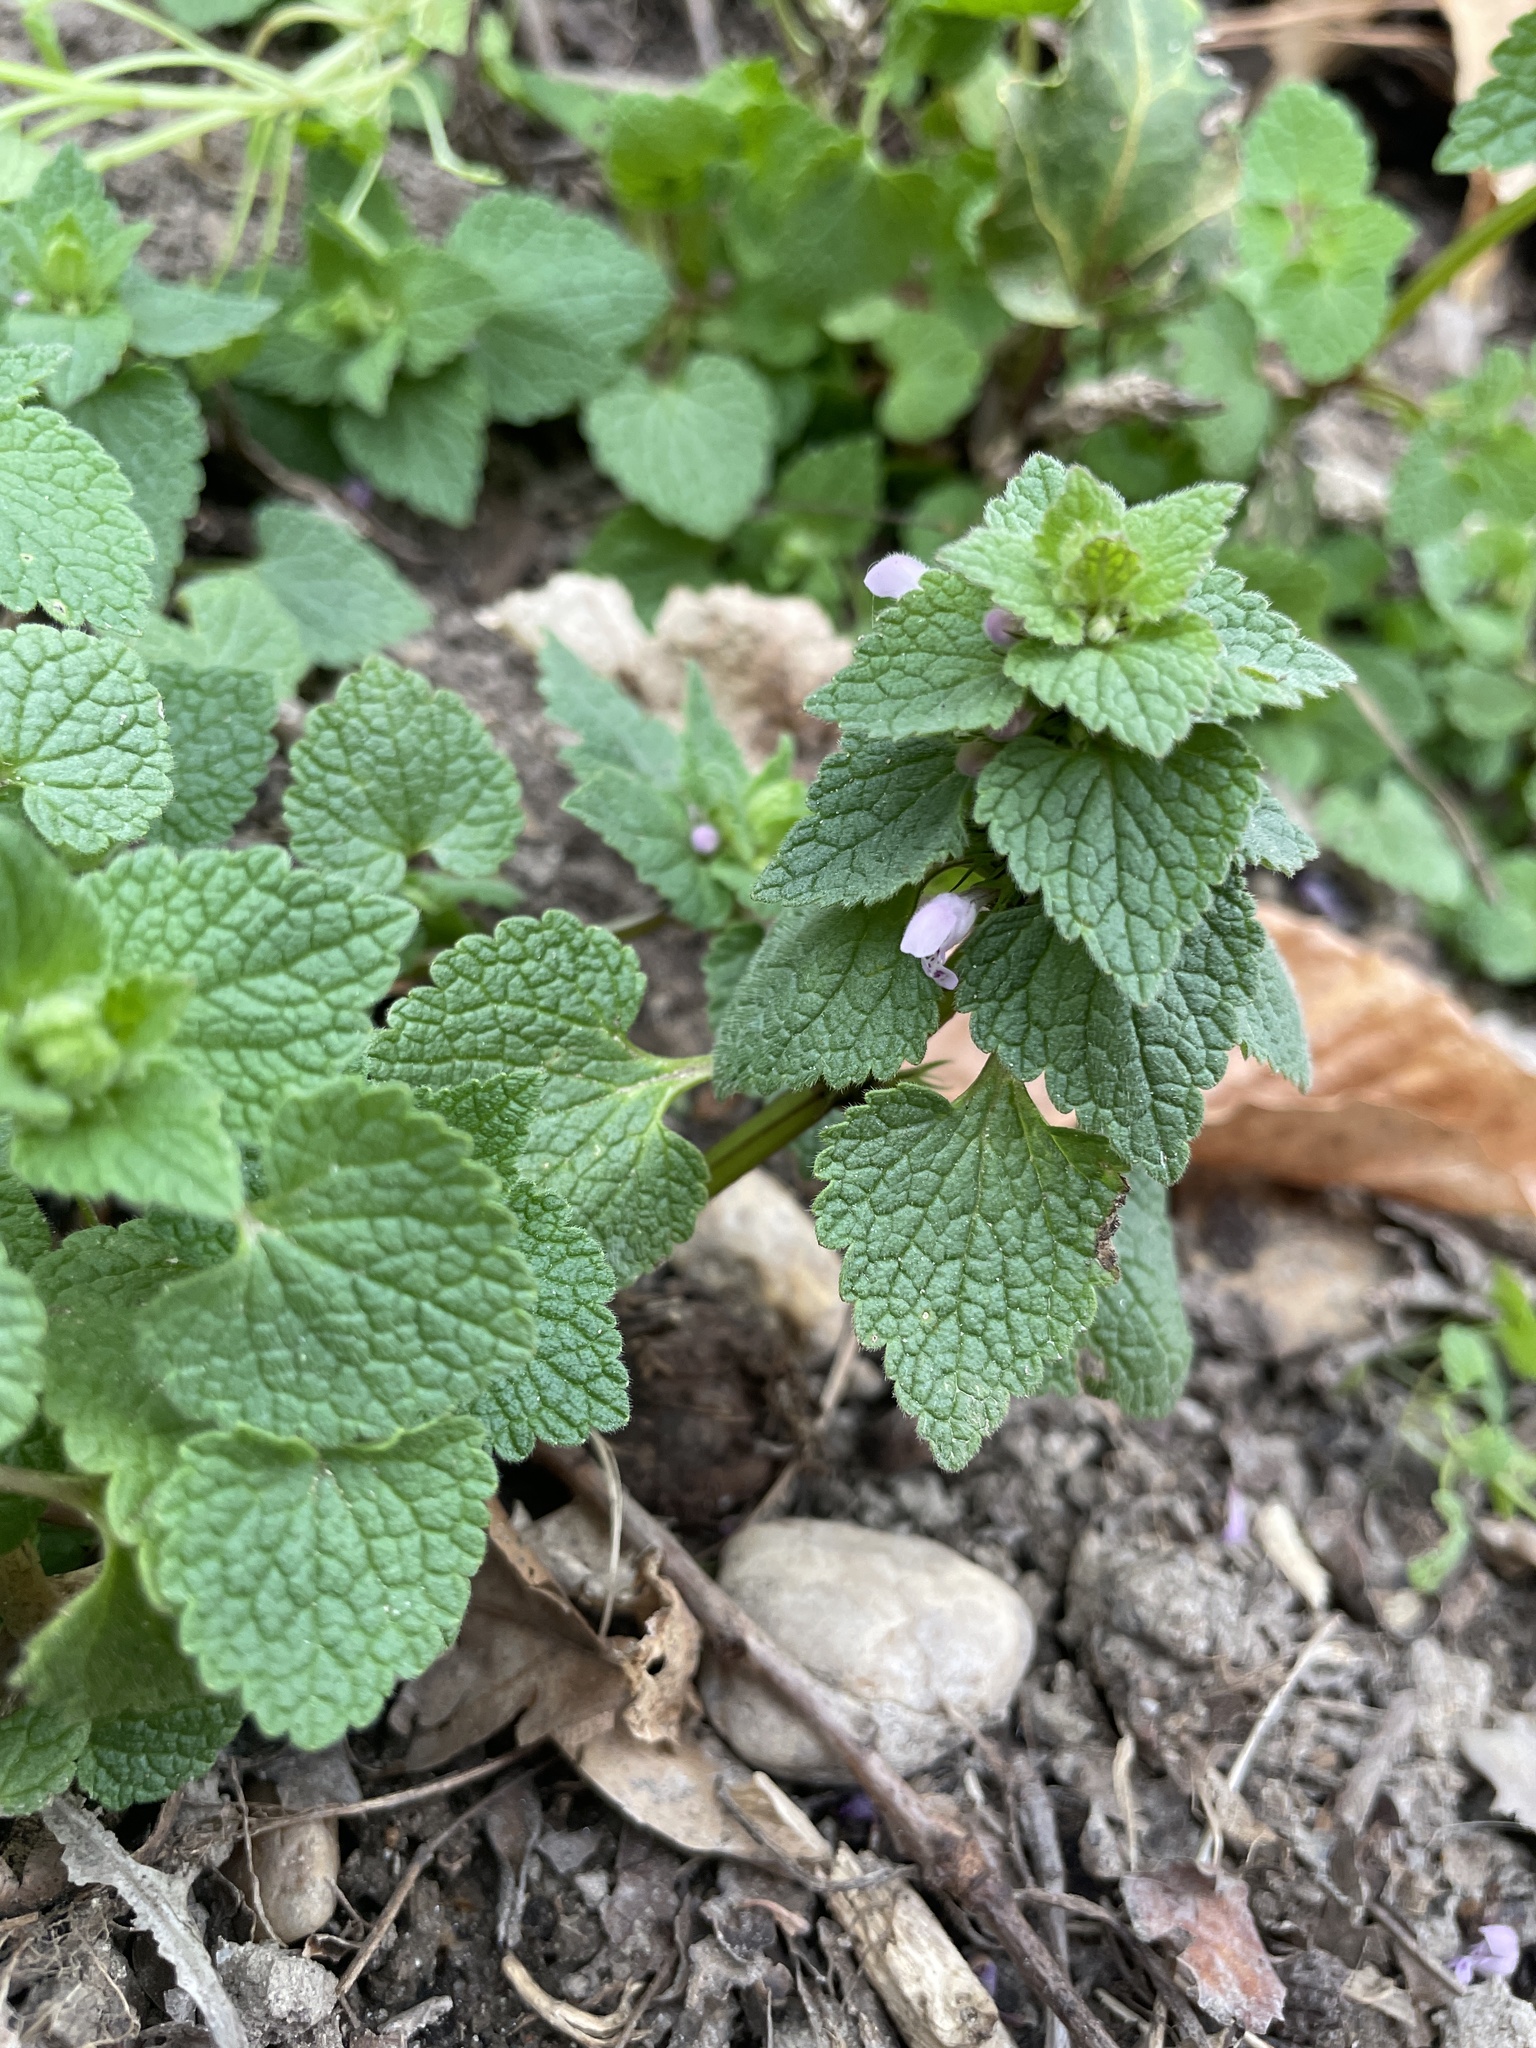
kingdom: Plantae
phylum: Tracheophyta
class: Magnoliopsida
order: Lamiales
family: Lamiaceae
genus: Lamium
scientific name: Lamium purpureum
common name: Red dead-nettle
